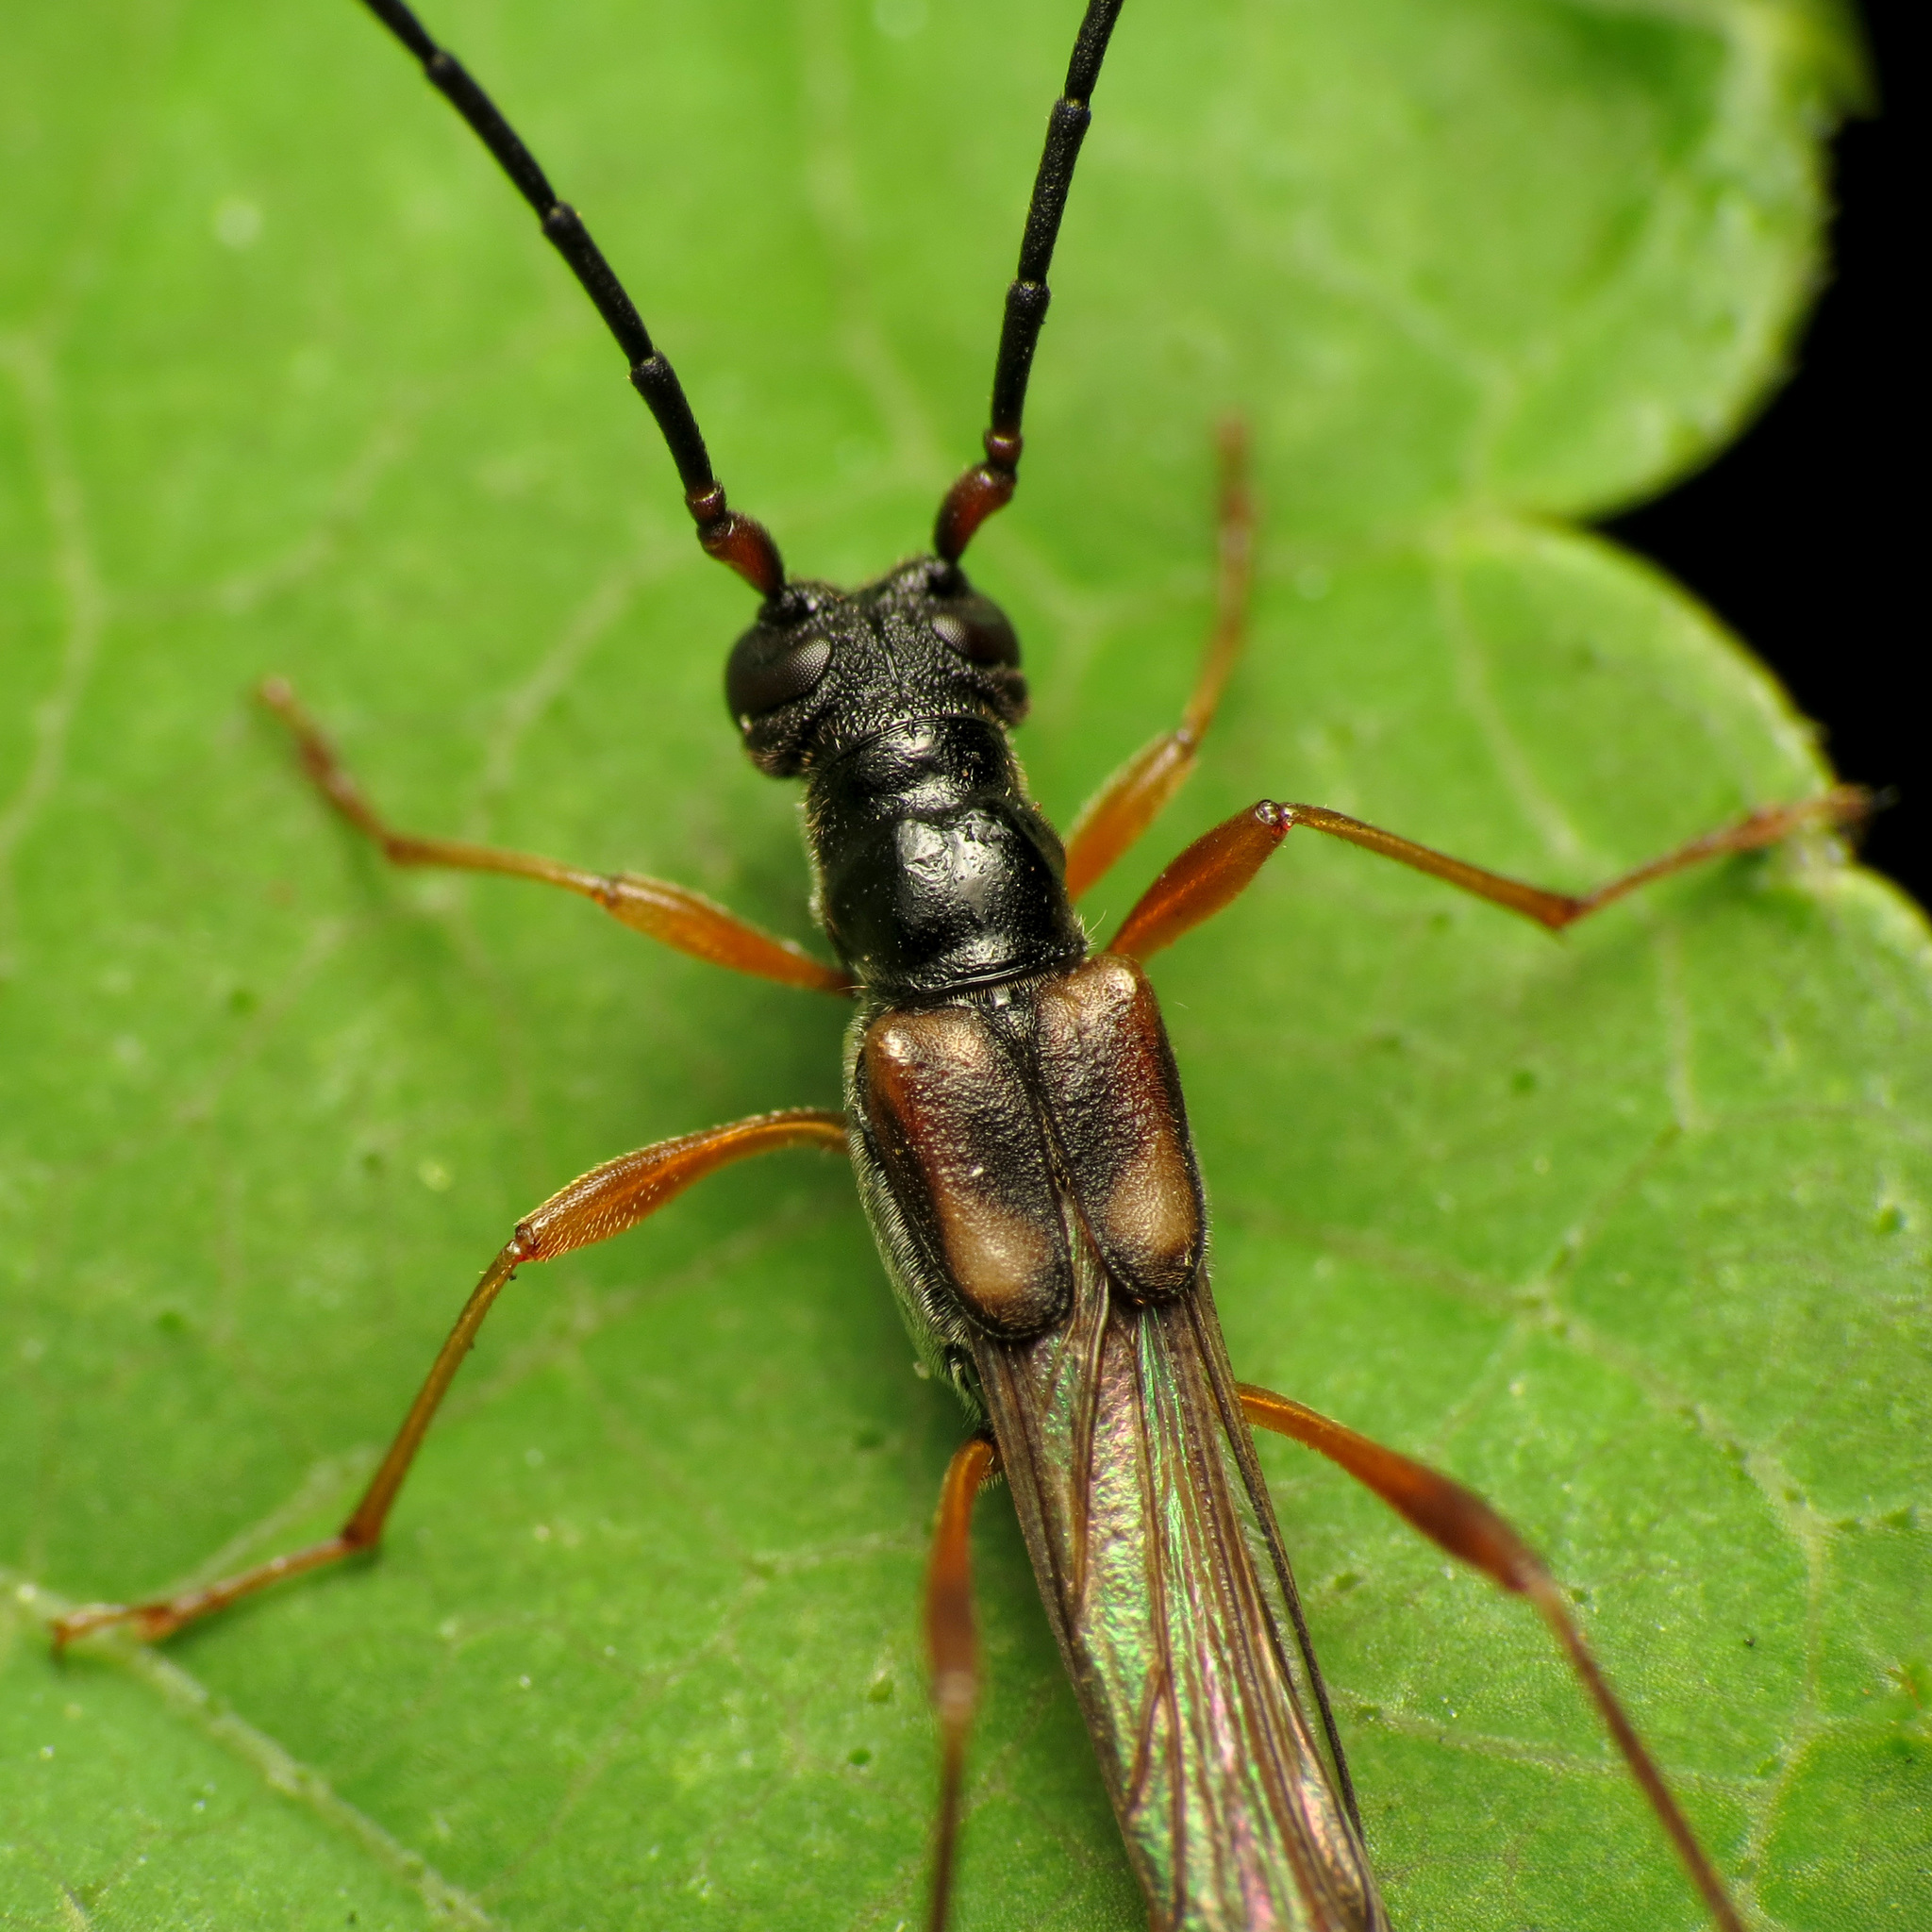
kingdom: Animalia
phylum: Arthropoda
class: Insecta
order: Coleoptera
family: Cerambycidae
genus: Necydalis
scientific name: Necydalis mellita
